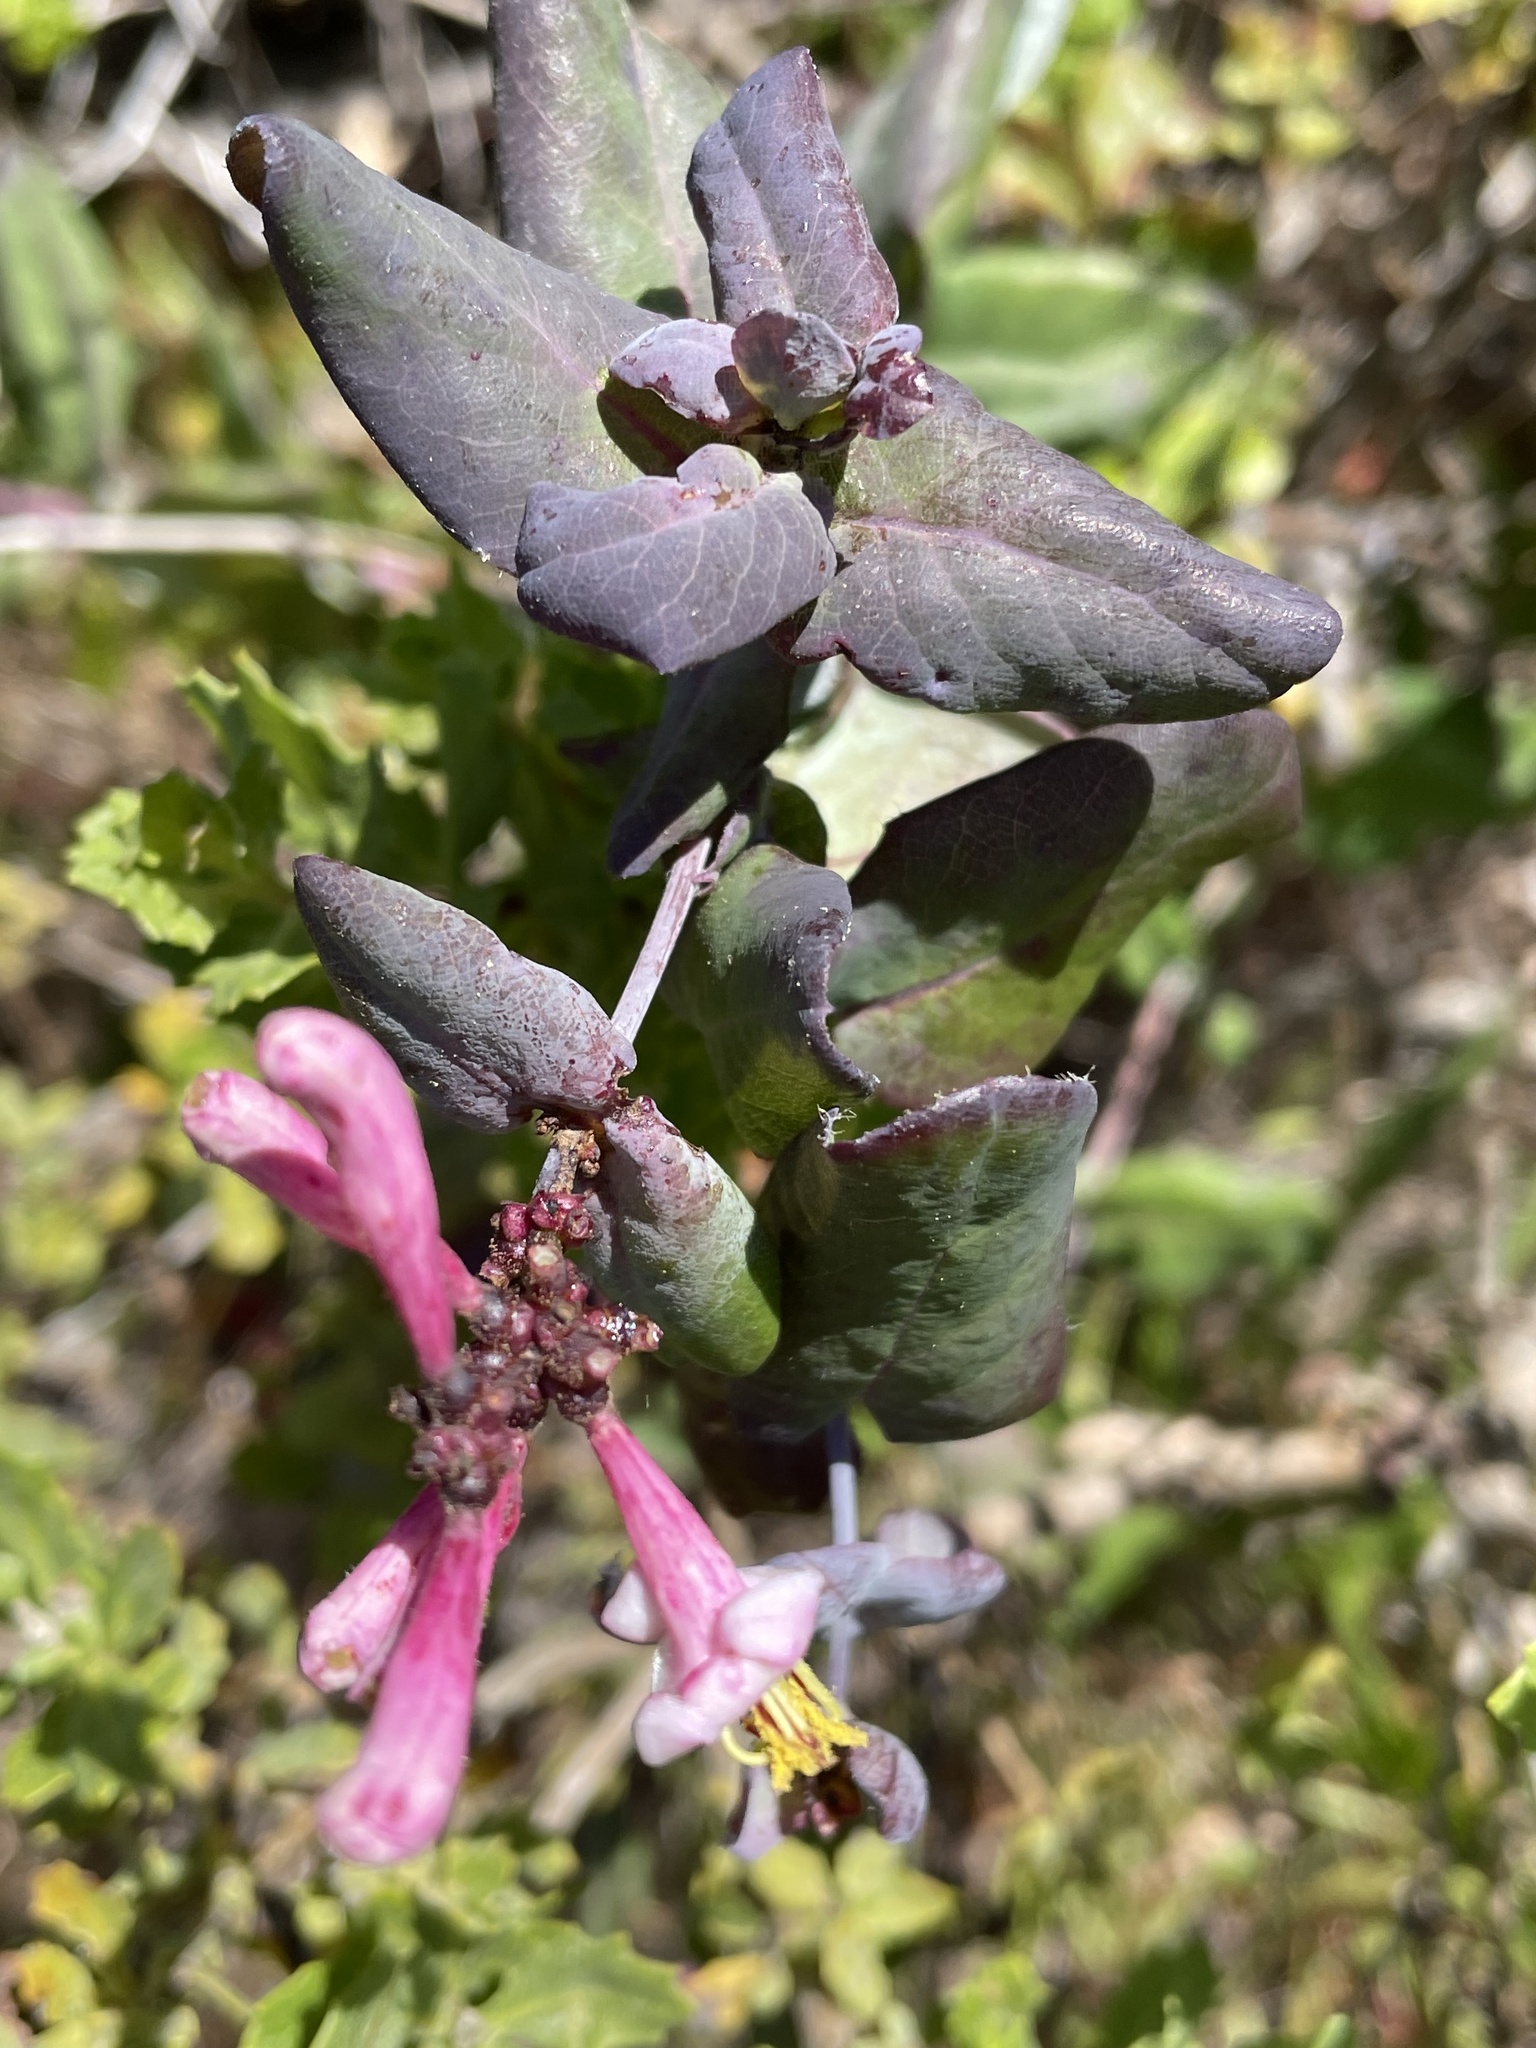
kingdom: Plantae
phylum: Tracheophyta
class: Magnoliopsida
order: Dipsacales
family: Caprifoliaceae
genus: Lonicera
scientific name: Lonicera hispidula
